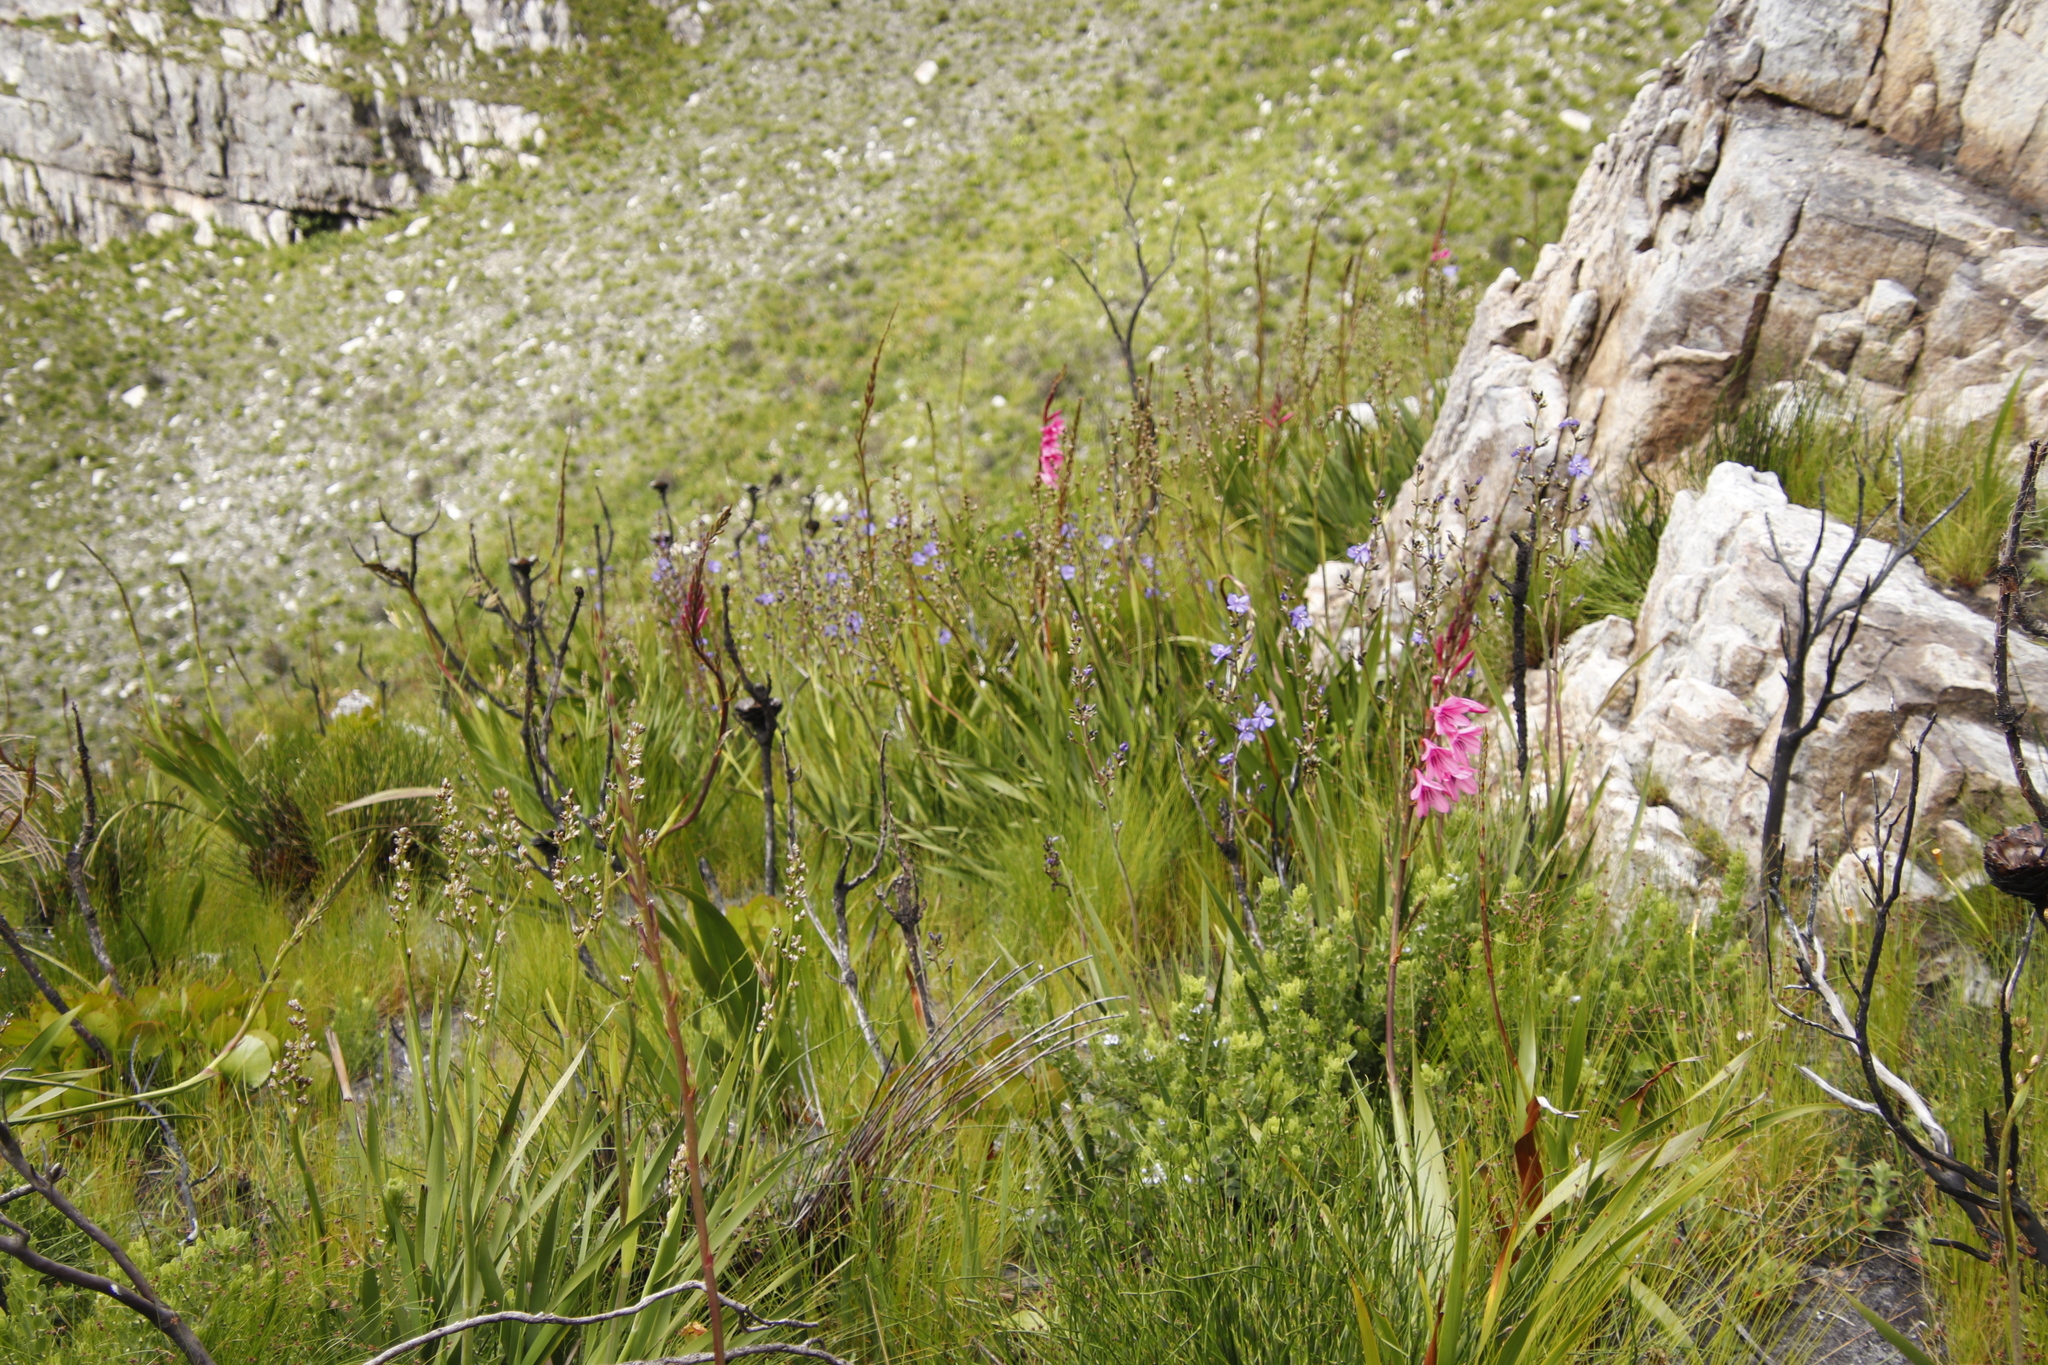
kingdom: Plantae
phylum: Tracheophyta
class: Liliopsida
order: Asparagales
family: Iridaceae
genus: Aristea
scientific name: Aristea bakeri
